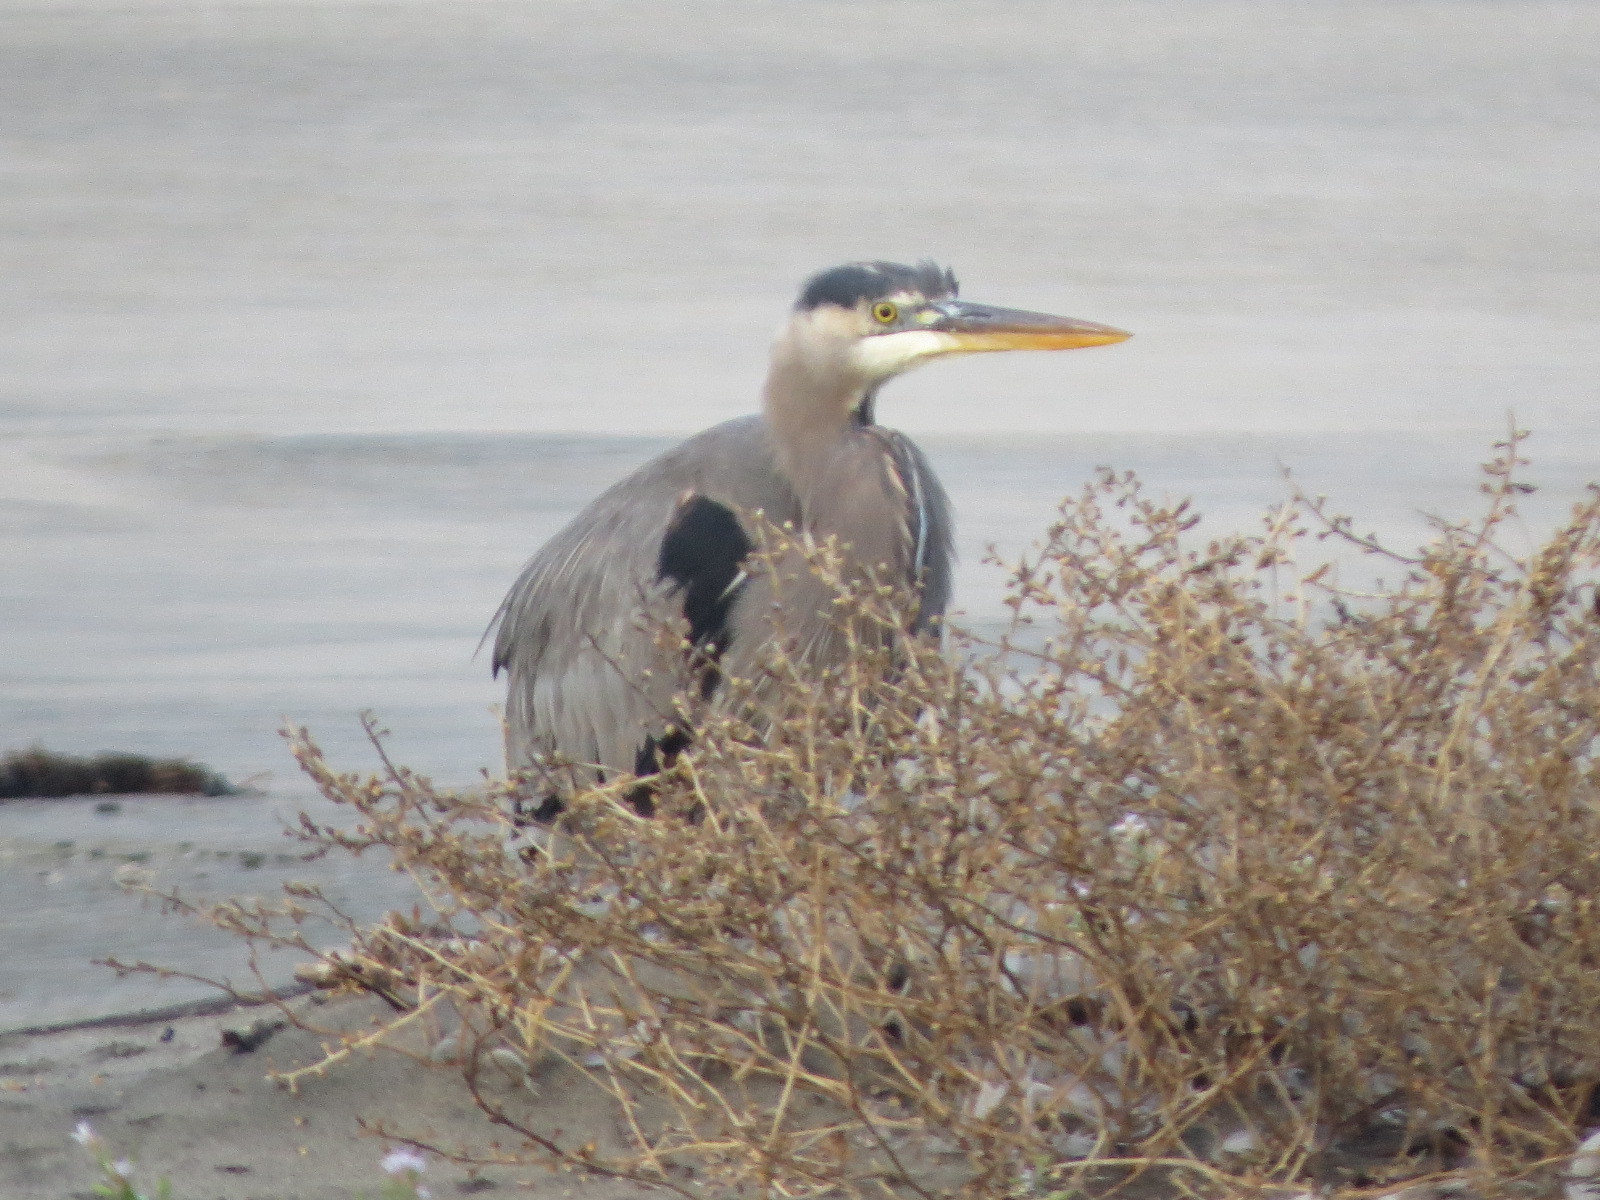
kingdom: Animalia
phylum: Chordata
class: Aves
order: Pelecaniformes
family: Ardeidae
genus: Ardea
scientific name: Ardea herodias
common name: Great blue heron
